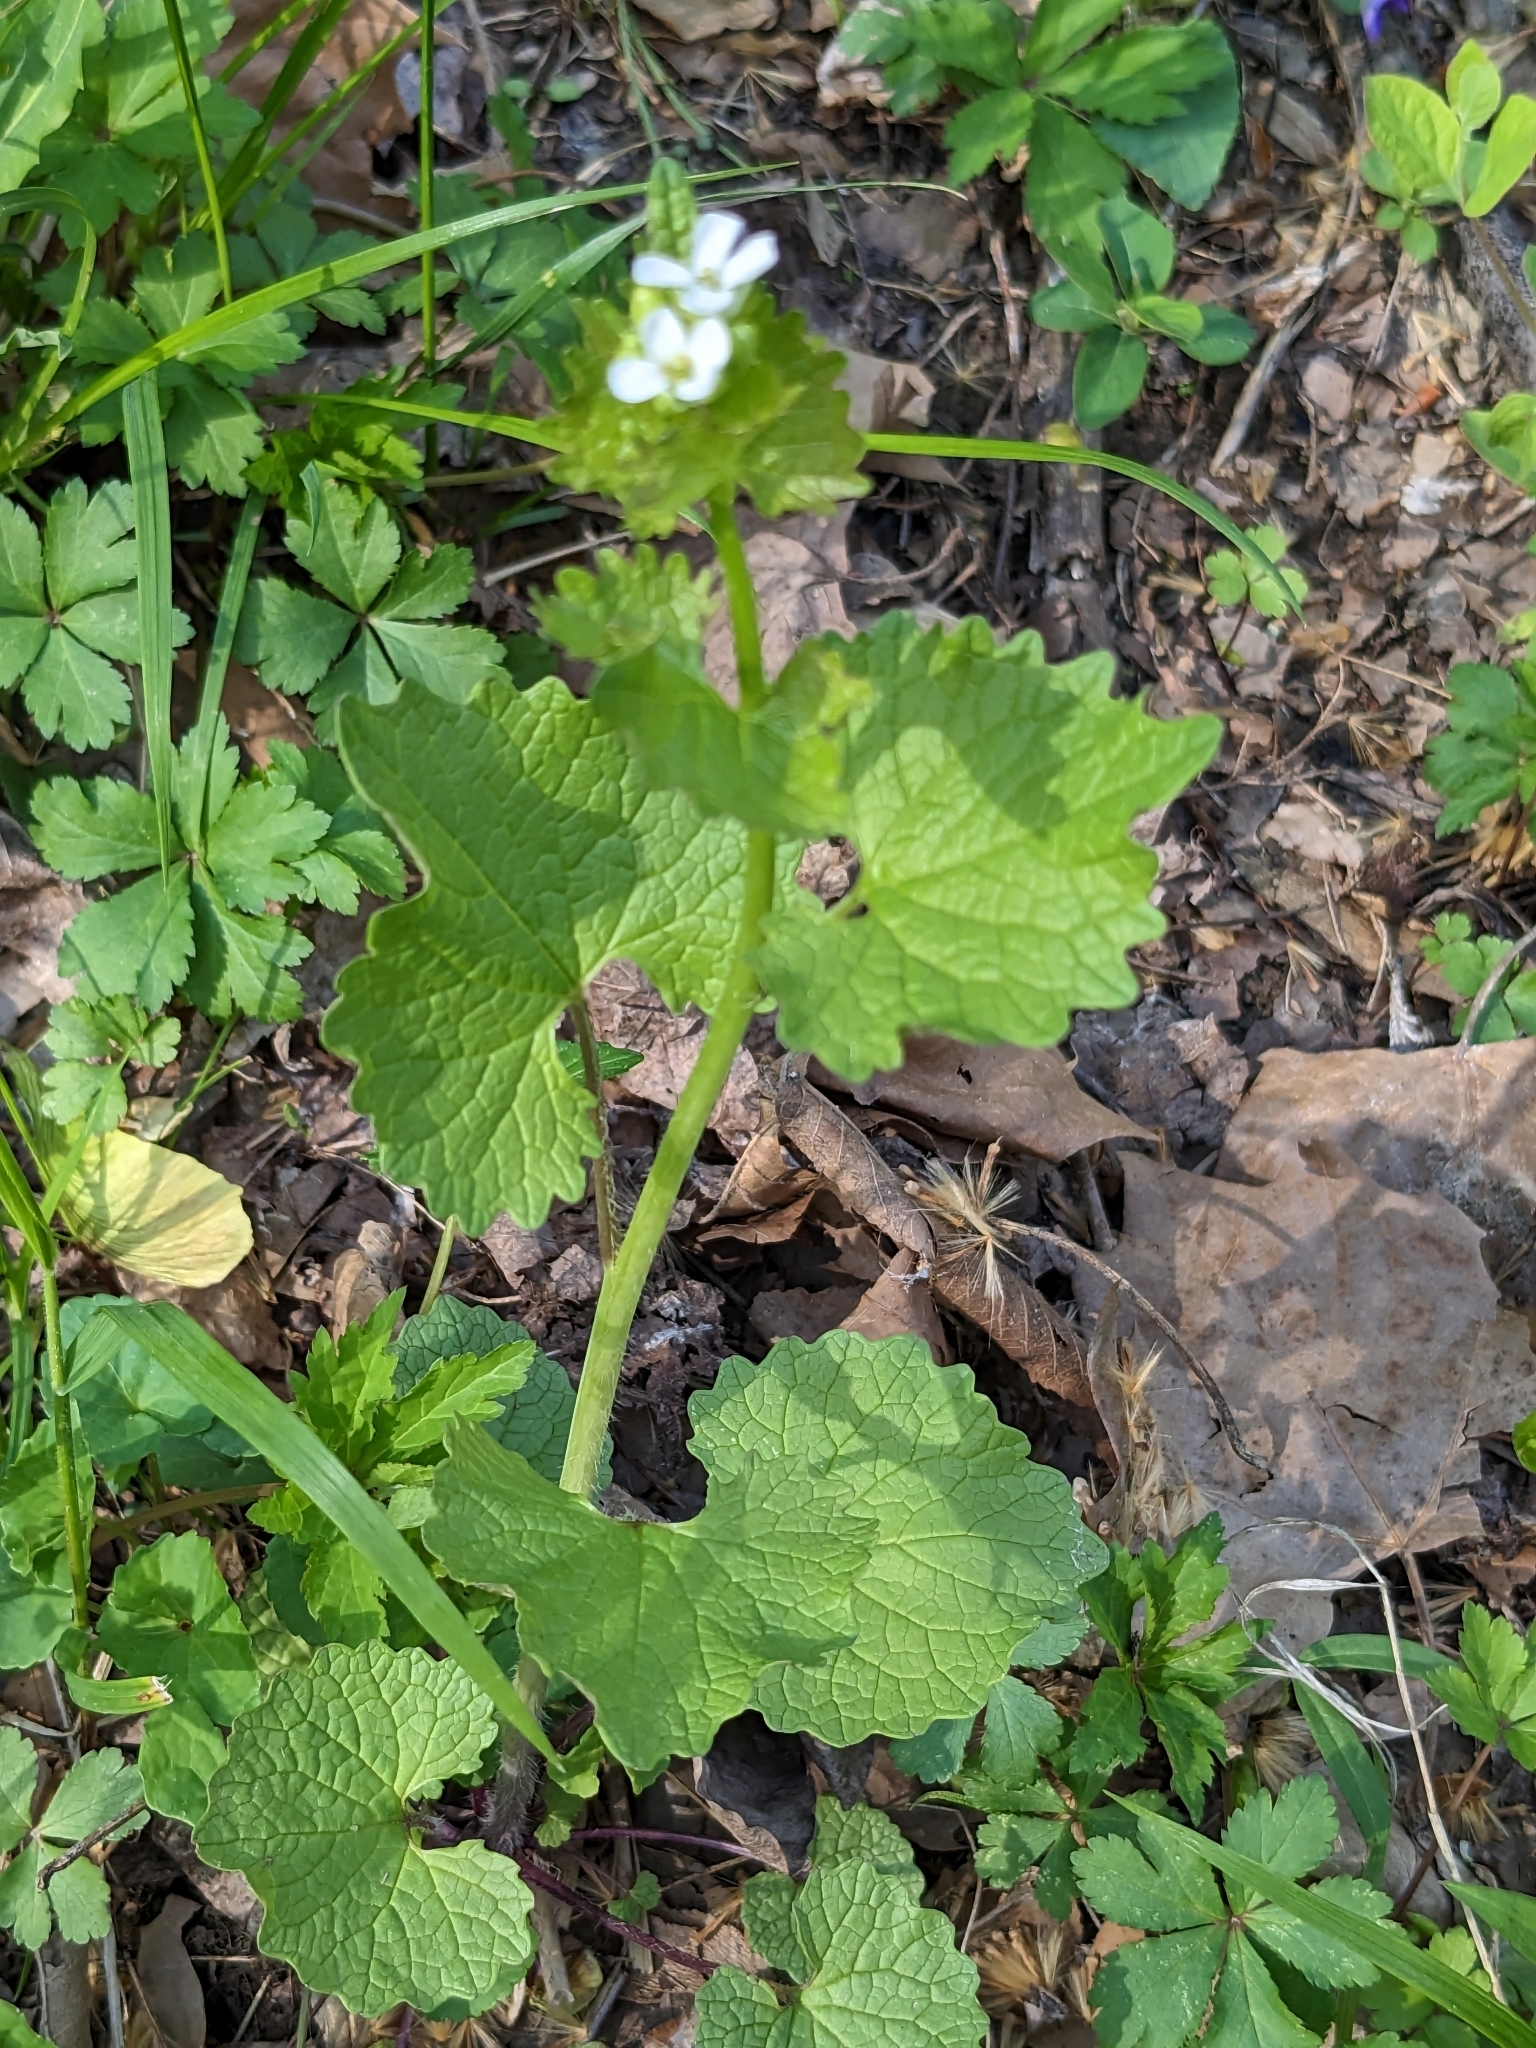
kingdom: Plantae
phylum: Tracheophyta
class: Magnoliopsida
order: Brassicales
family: Brassicaceae
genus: Alliaria
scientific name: Alliaria petiolata
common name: Garlic mustard
